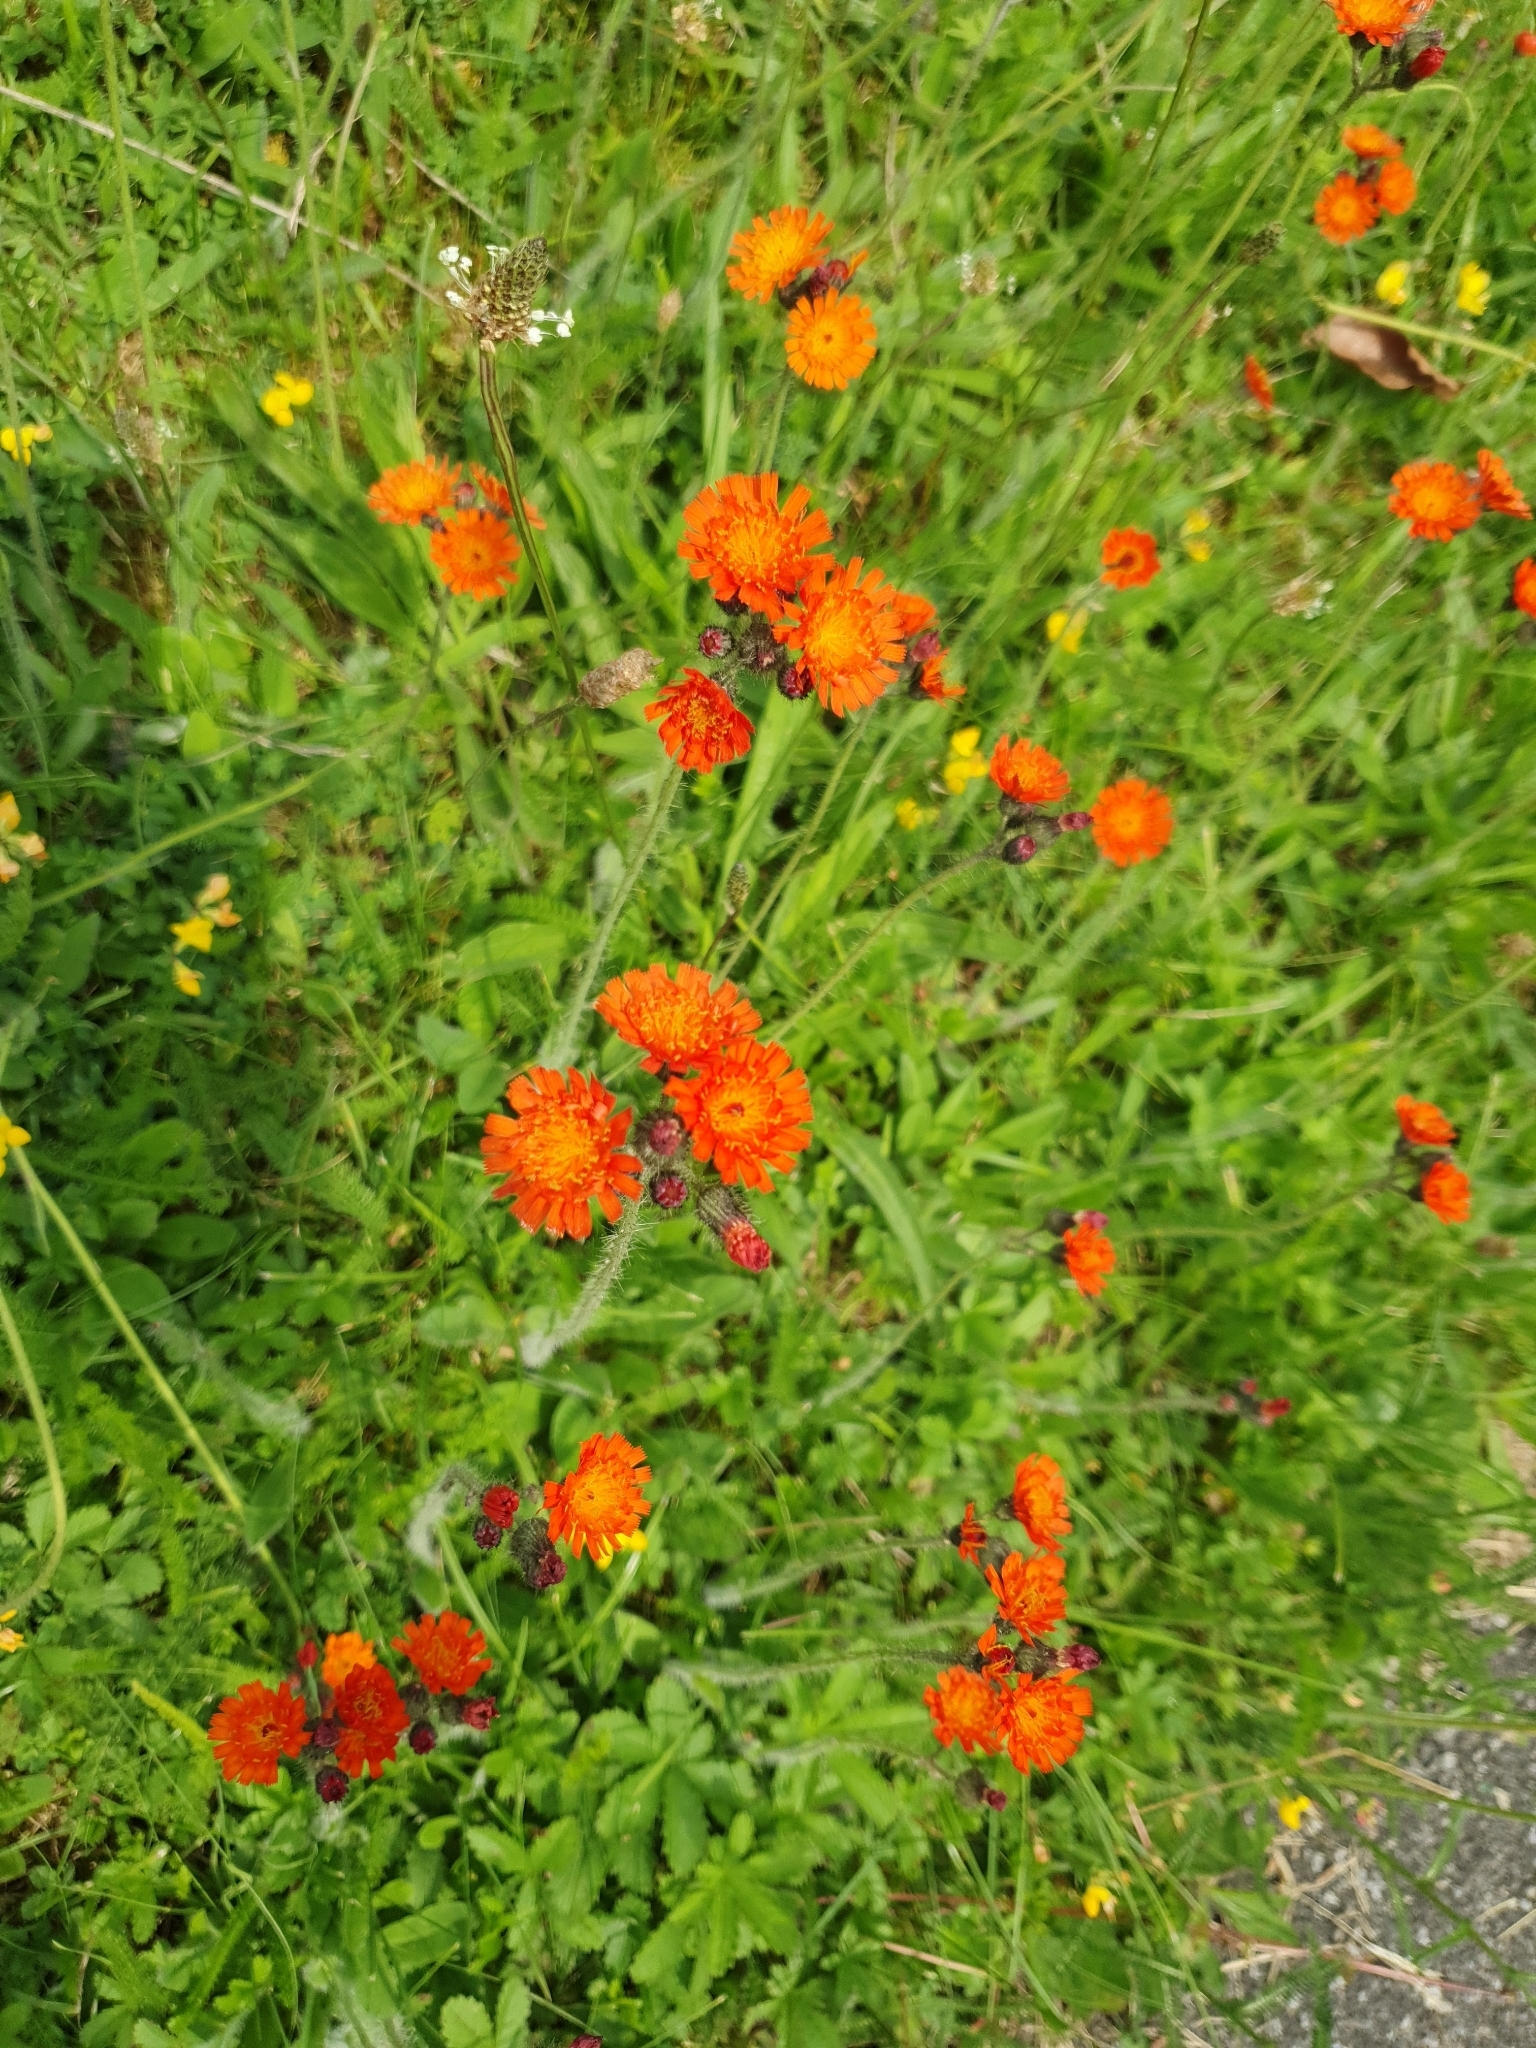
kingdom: Plantae
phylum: Tracheophyta
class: Magnoliopsida
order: Asterales
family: Asteraceae
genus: Pilosella
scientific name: Pilosella aurantiaca
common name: Fox-and-cubs
